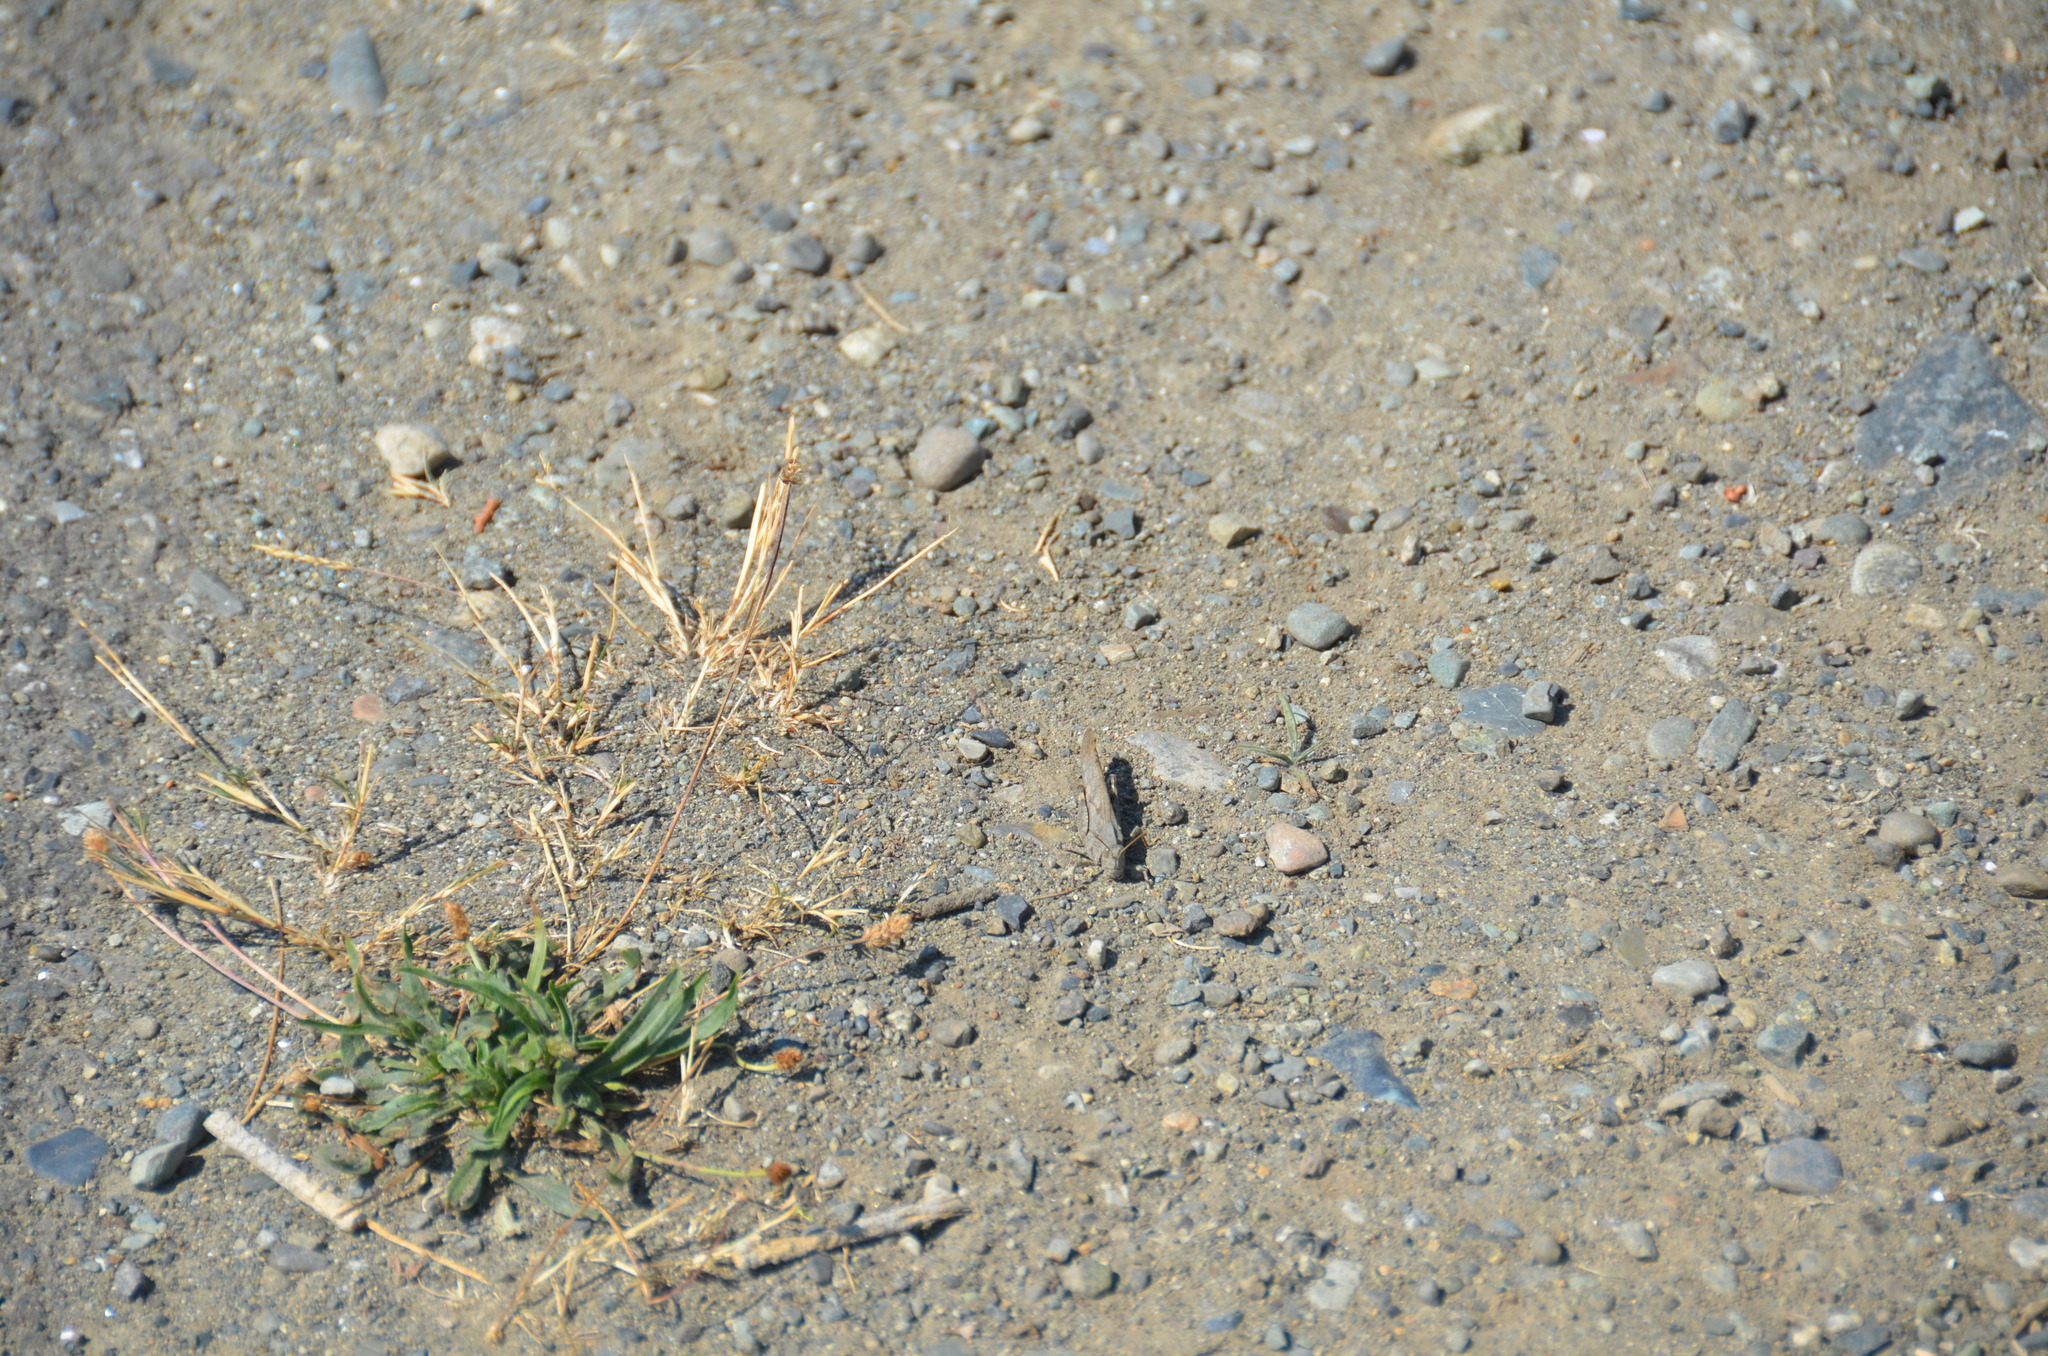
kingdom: Animalia
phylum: Arthropoda
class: Insecta
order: Orthoptera
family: Acrididae
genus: Dissosteira
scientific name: Dissosteira carolina
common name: Carolina grasshopper
